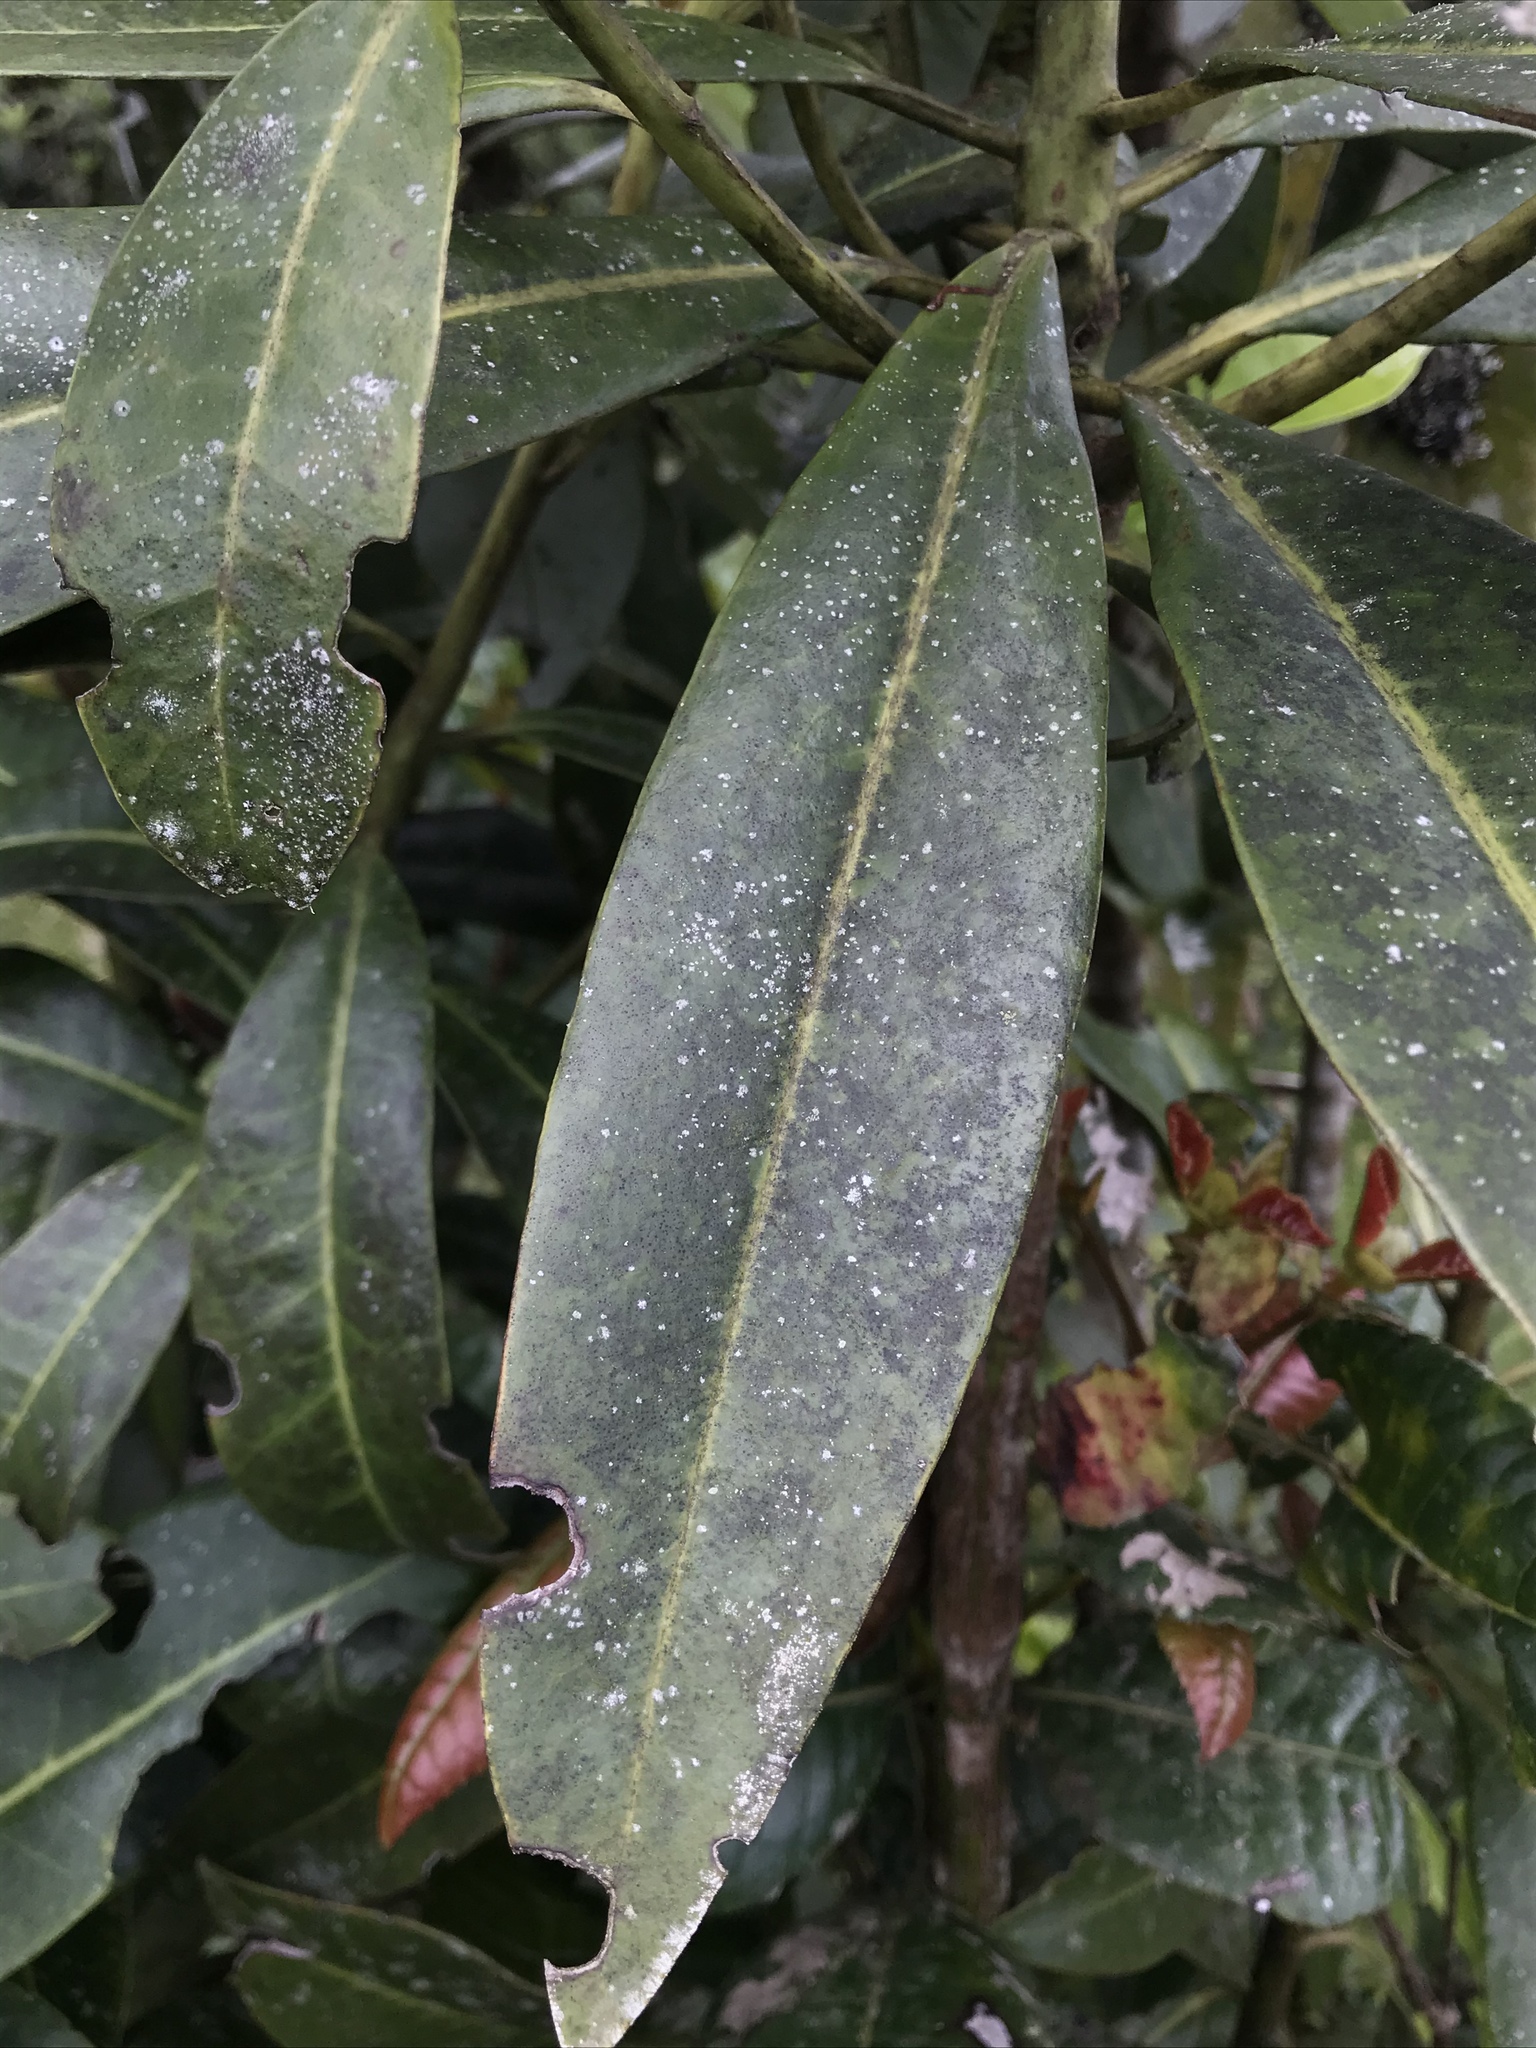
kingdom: Plantae
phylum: Tracheophyta
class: Magnoliopsida
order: Canellales
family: Winteraceae
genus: Drimys
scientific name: Drimys granadensis
